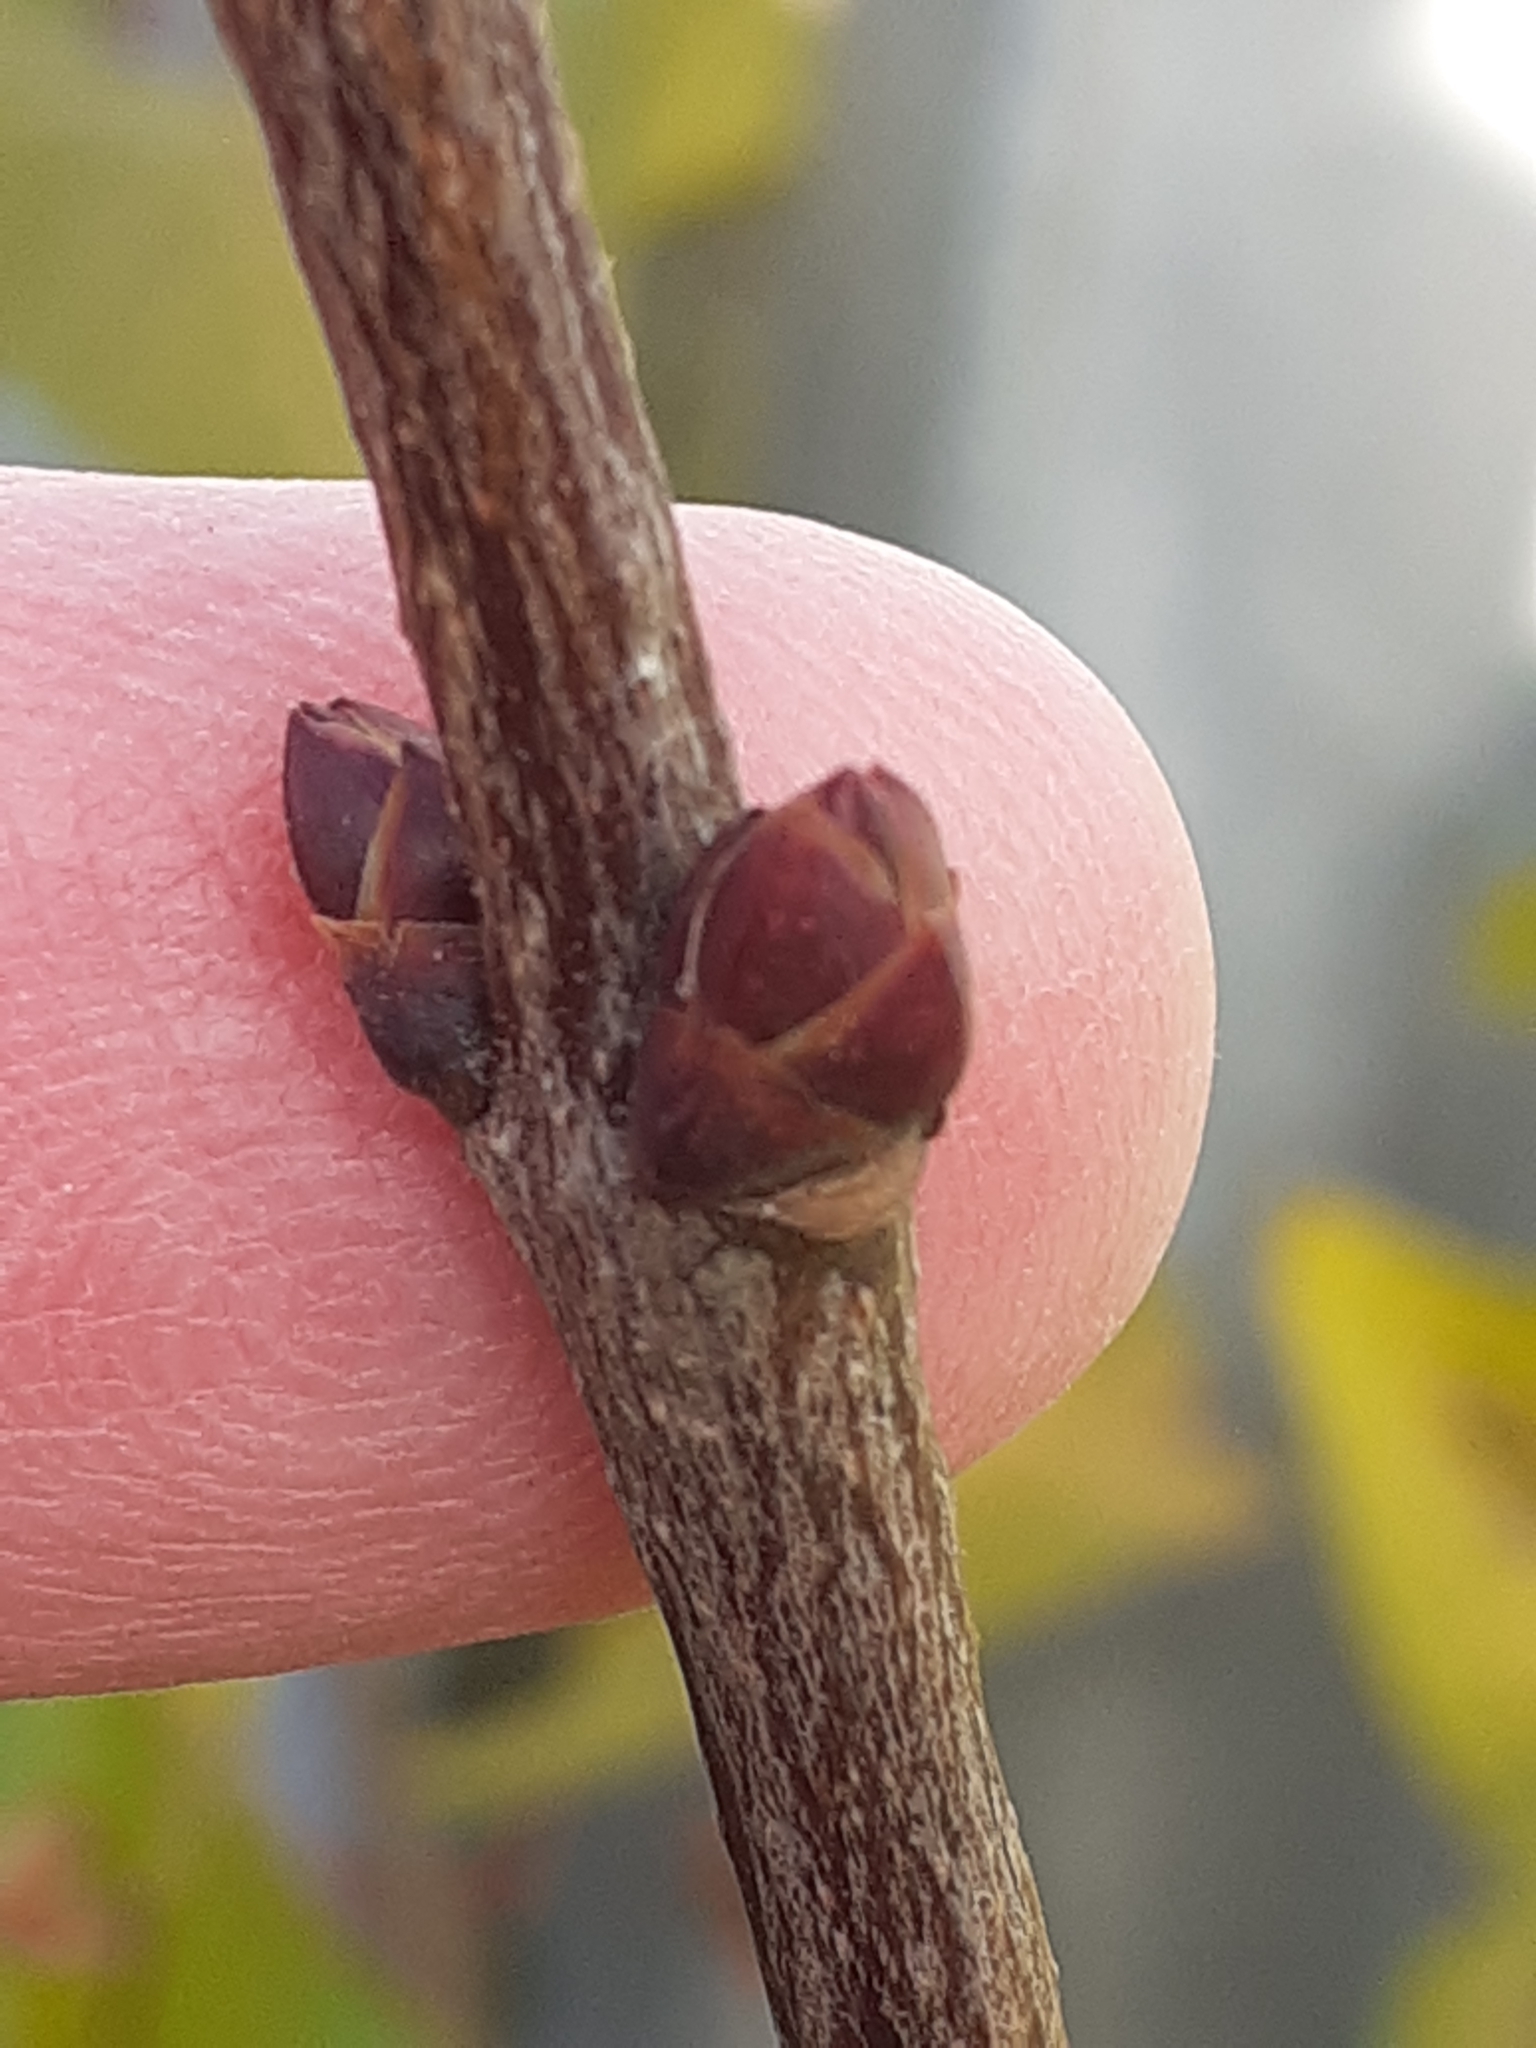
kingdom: Plantae
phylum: Tracheophyta
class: Magnoliopsida
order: Lamiales
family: Oleaceae
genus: Syringa
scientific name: Syringa vulgaris
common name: Common lilac
